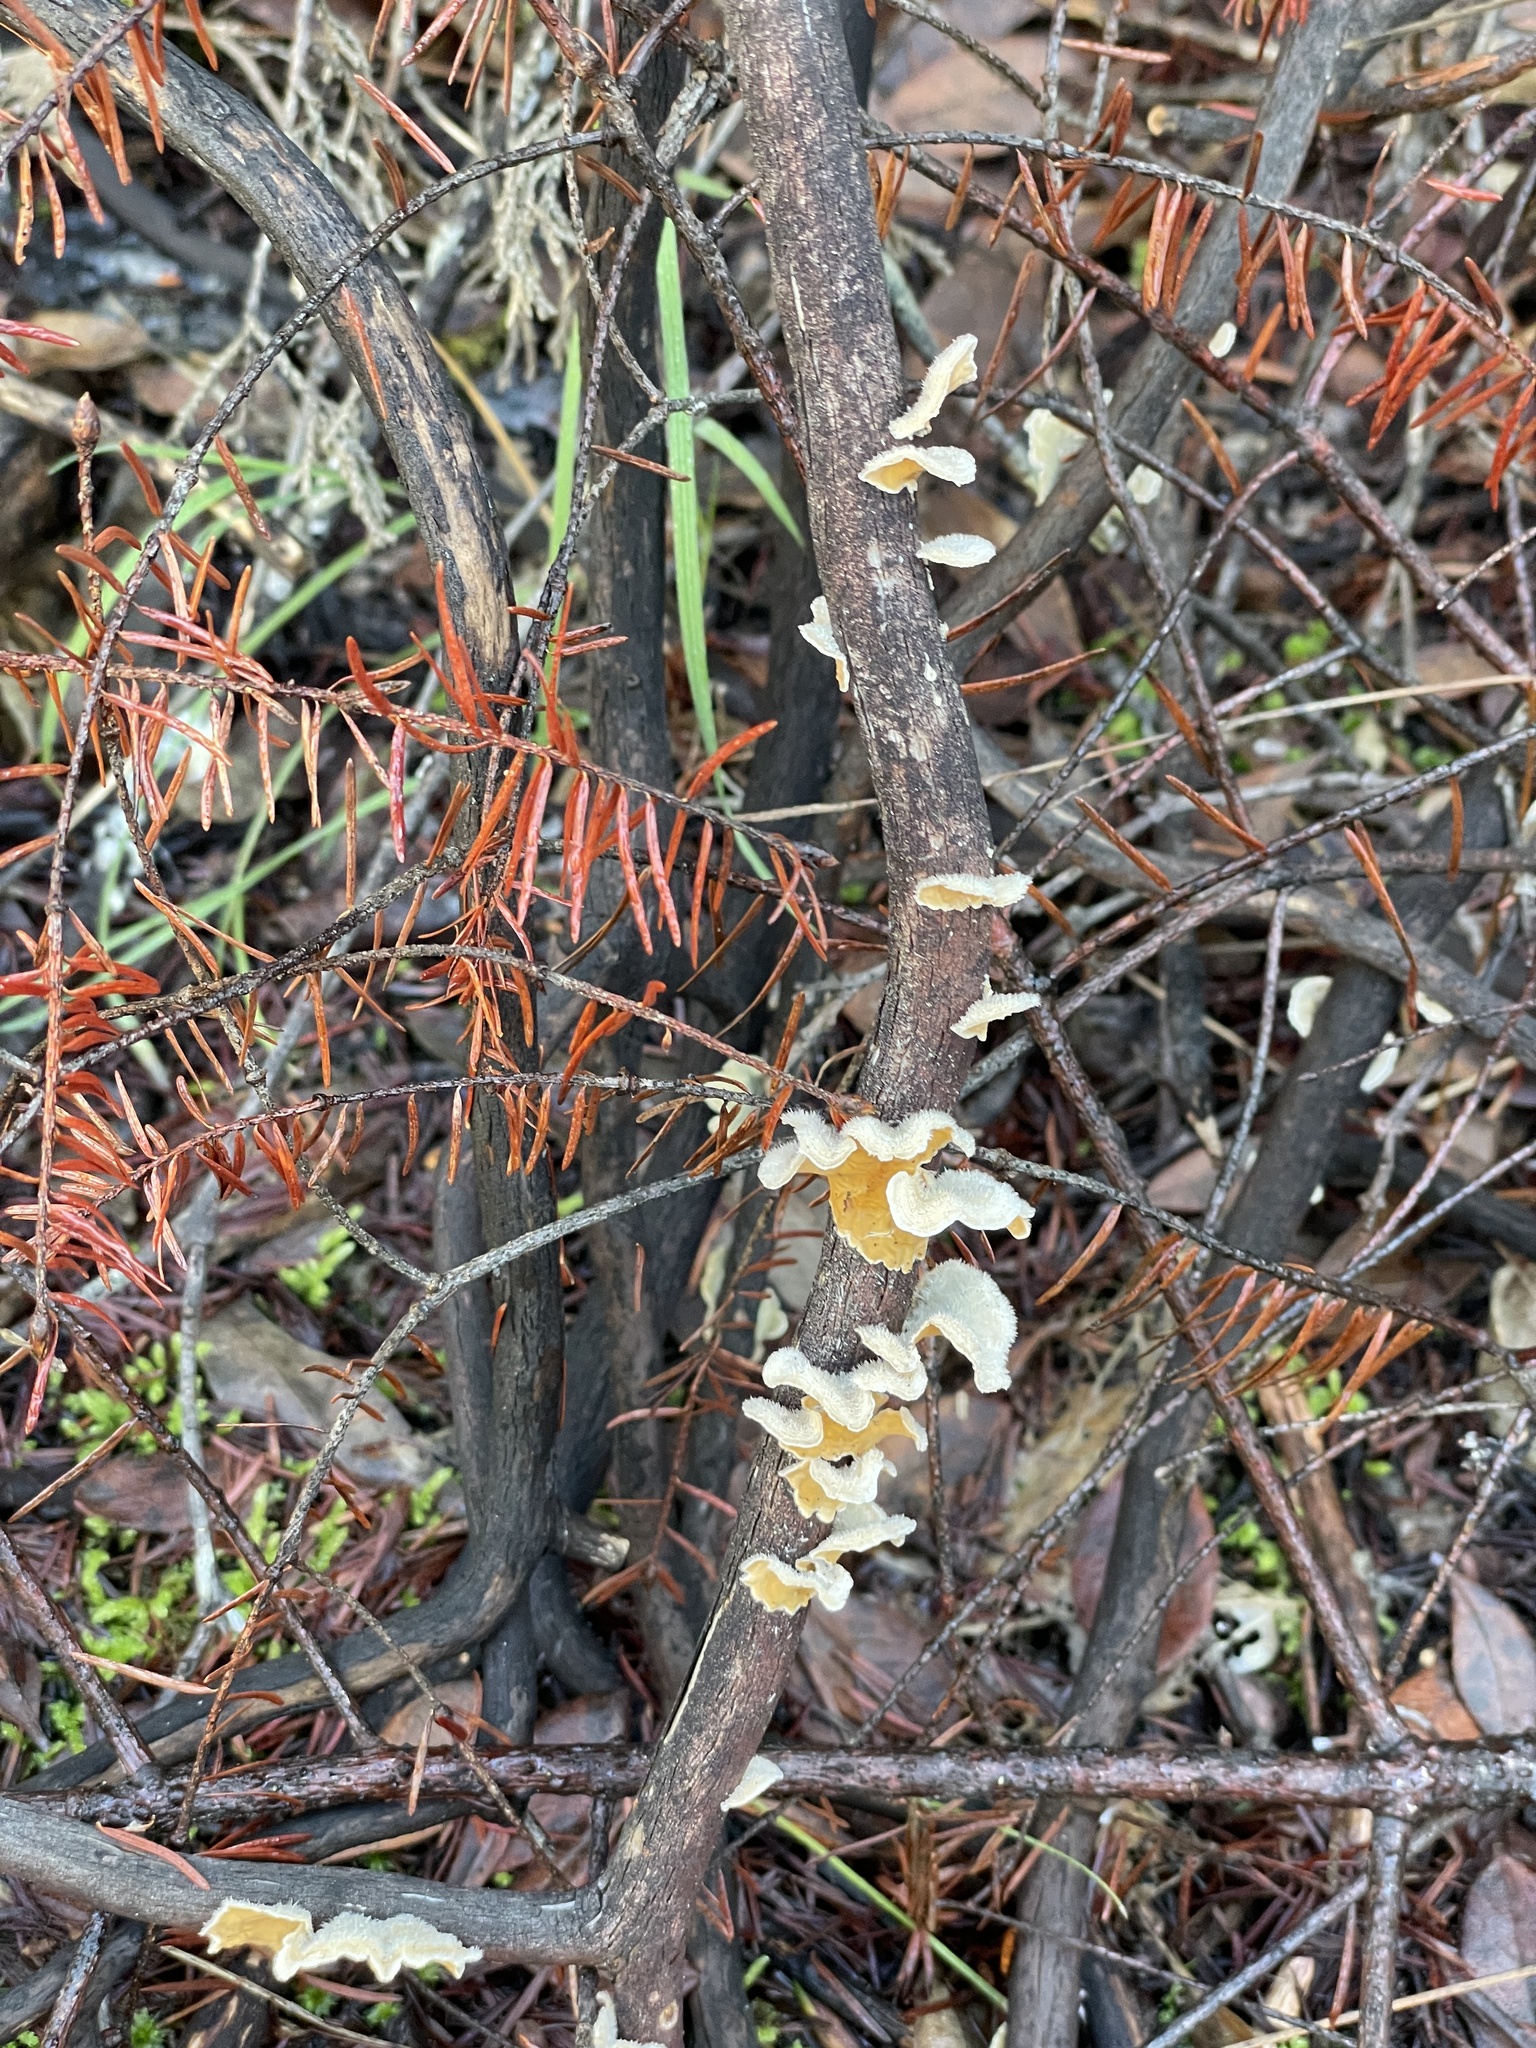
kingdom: Fungi
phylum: Basidiomycota
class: Agaricomycetes
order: Russulales
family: Stereaceae
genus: Stereum
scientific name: Stereum ochraceoflavum
